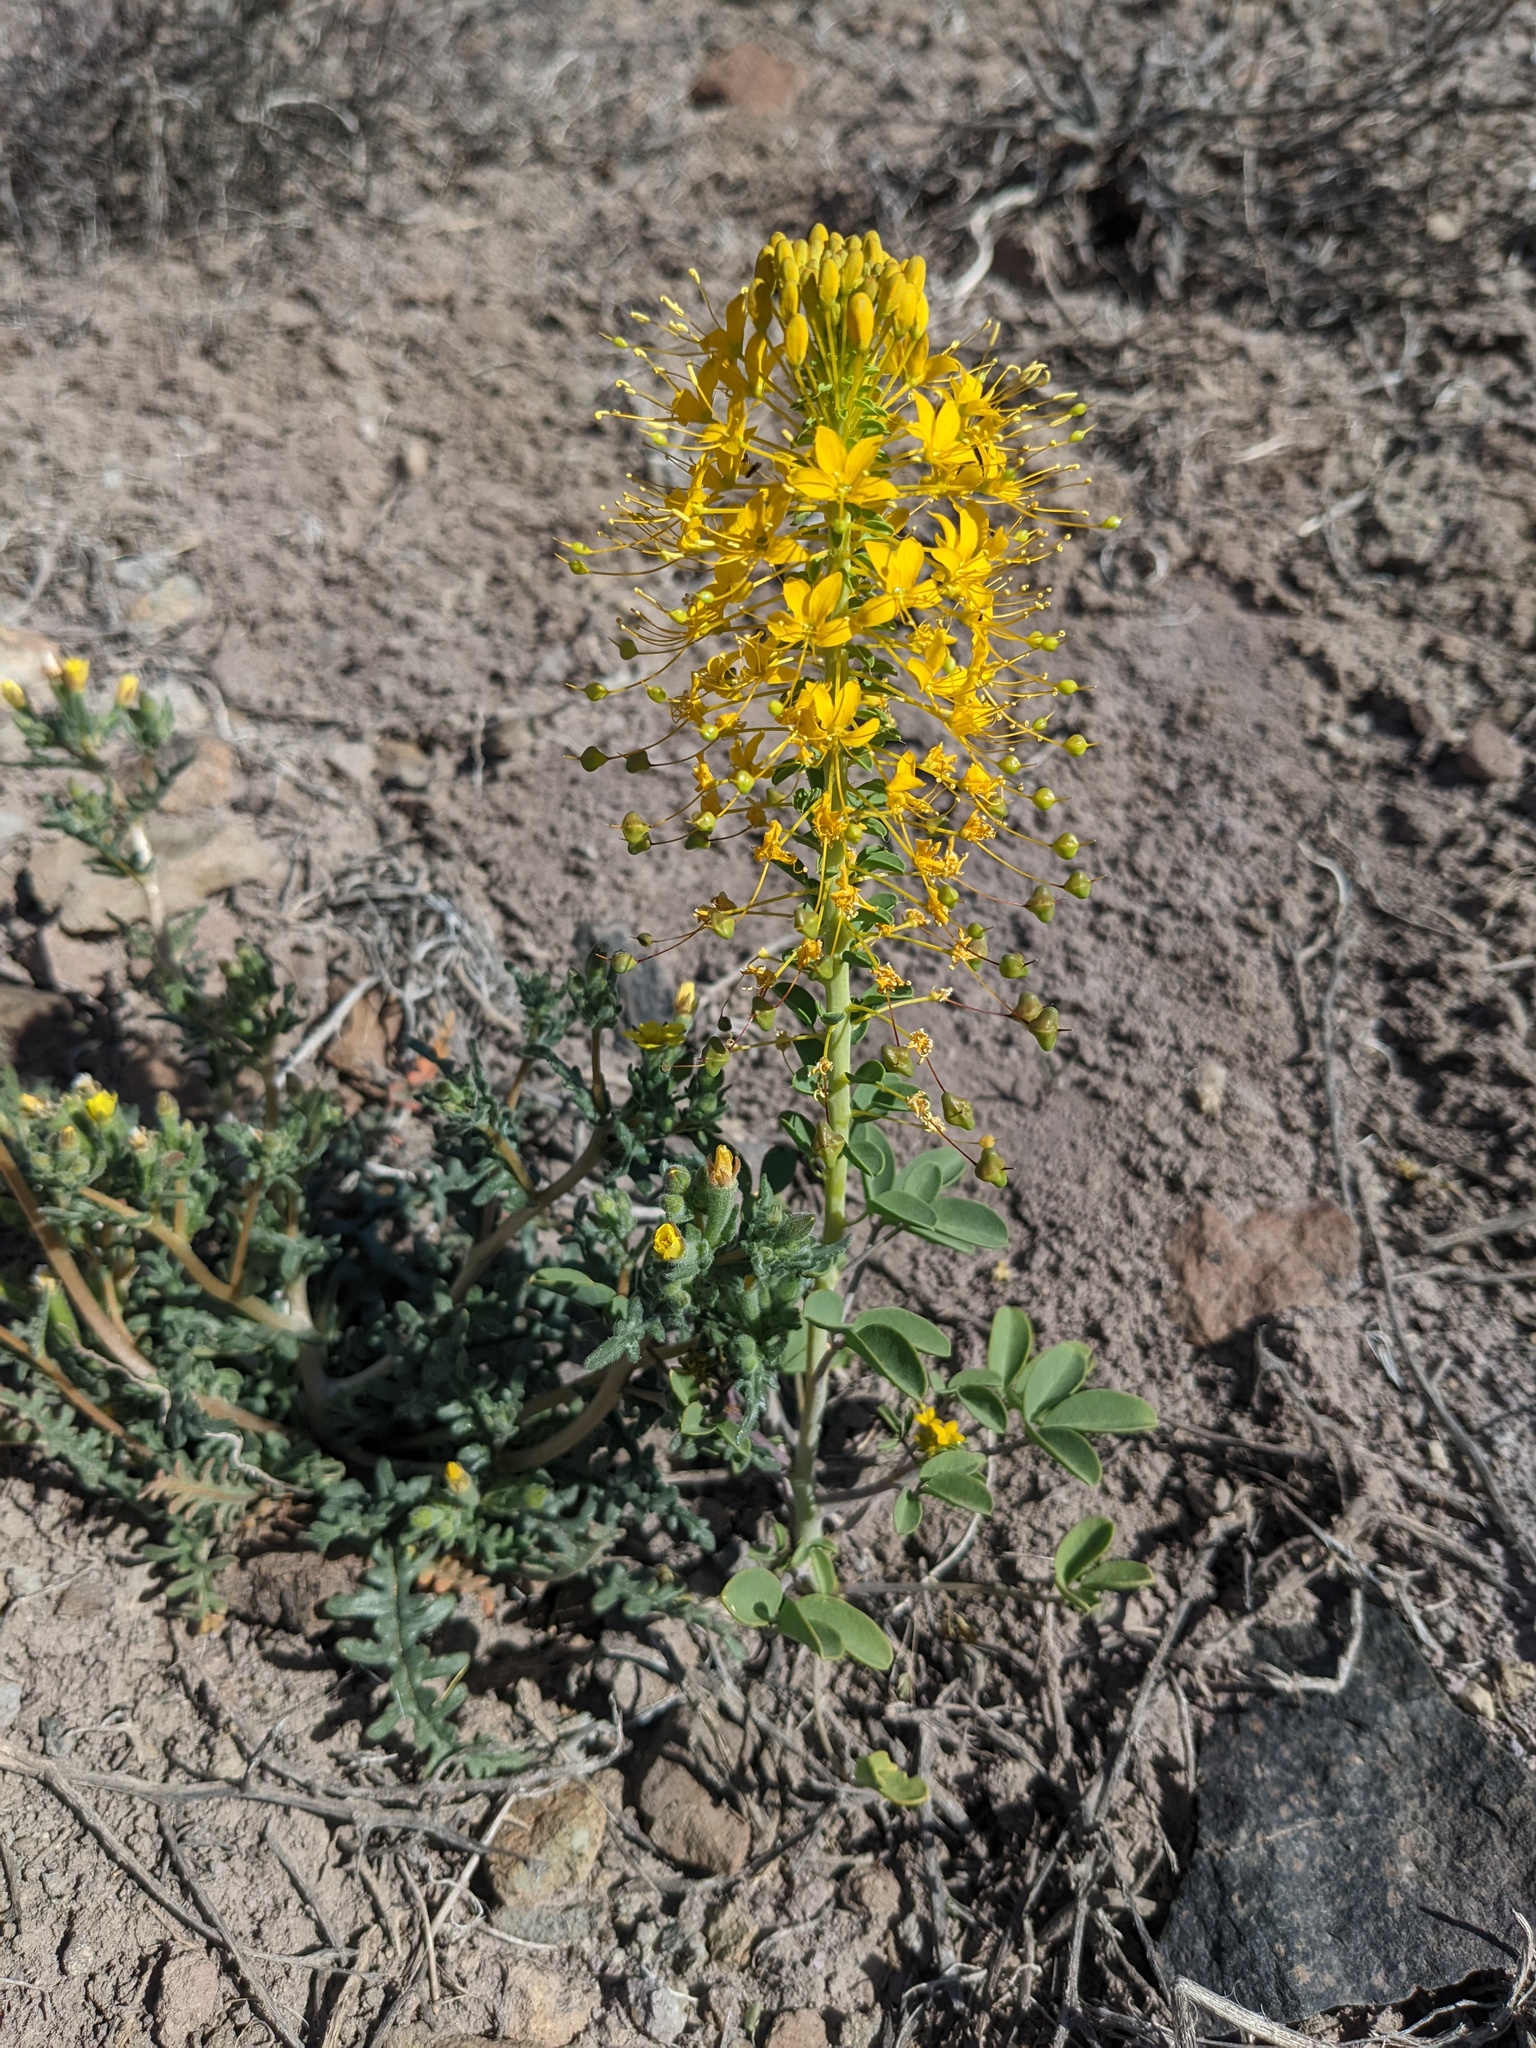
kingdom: Plantae
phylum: Tracheophyta
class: Magnoliopsida
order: Brassicales
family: Cleomaceae
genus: Cleomella
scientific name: Cleomella hillmanii
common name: Desert stinkweed
